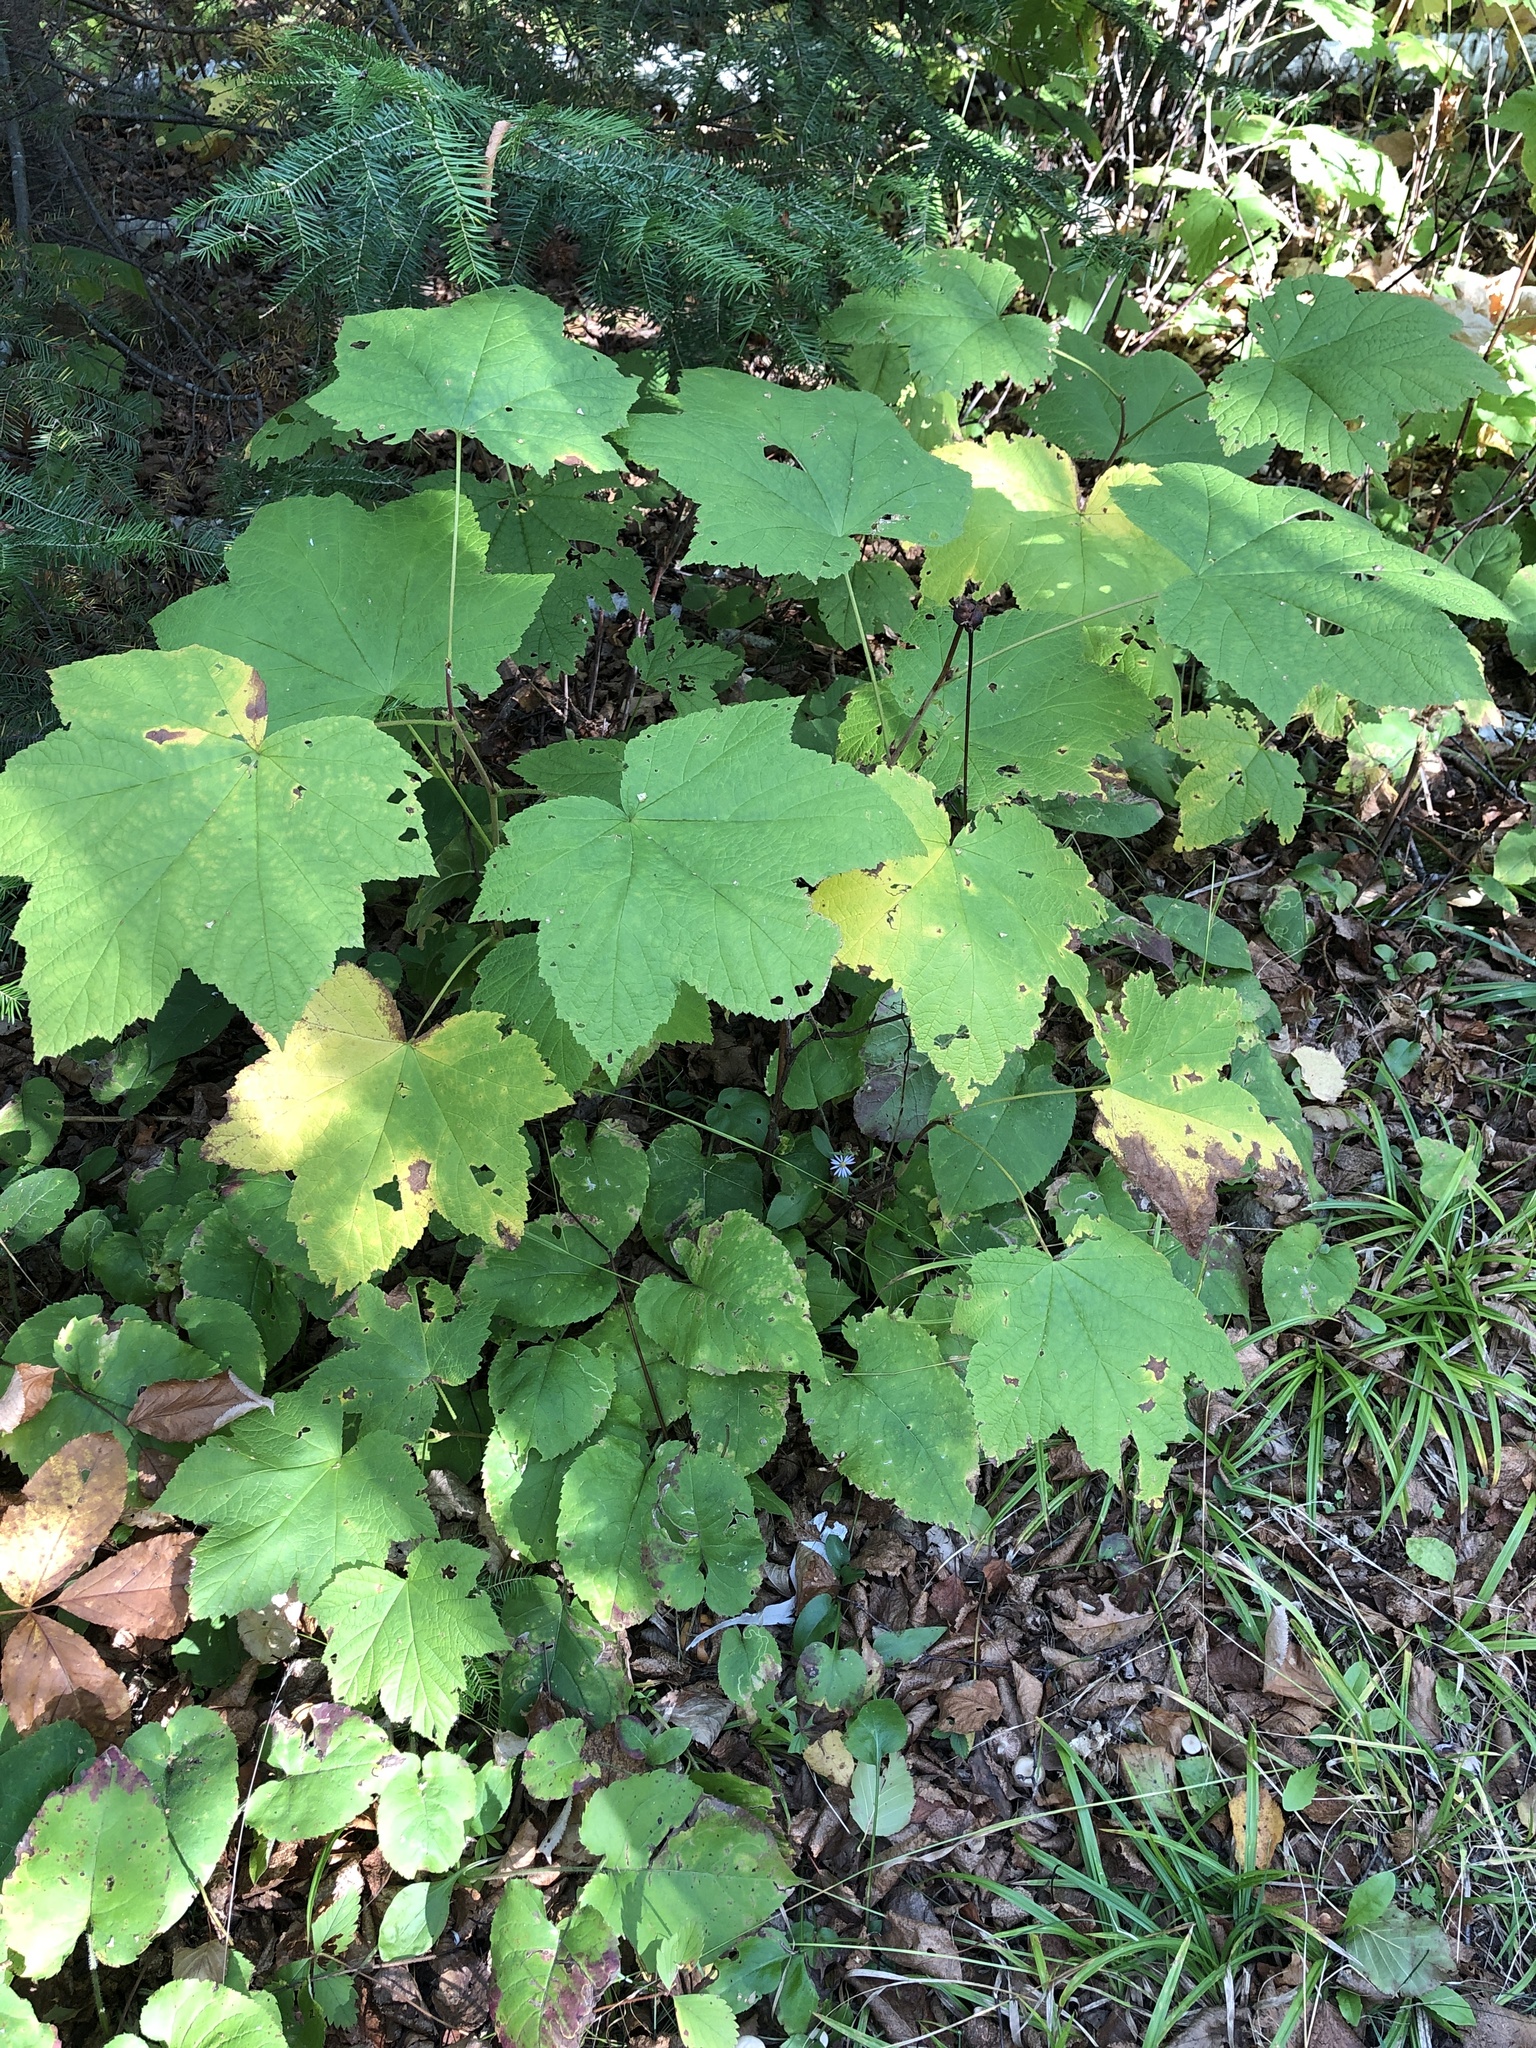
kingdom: Plantae
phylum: Tracheophyta
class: Magnoliopsida
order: Rosales
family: Rosaceae
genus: Rubus
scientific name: Rubus parviflorus
